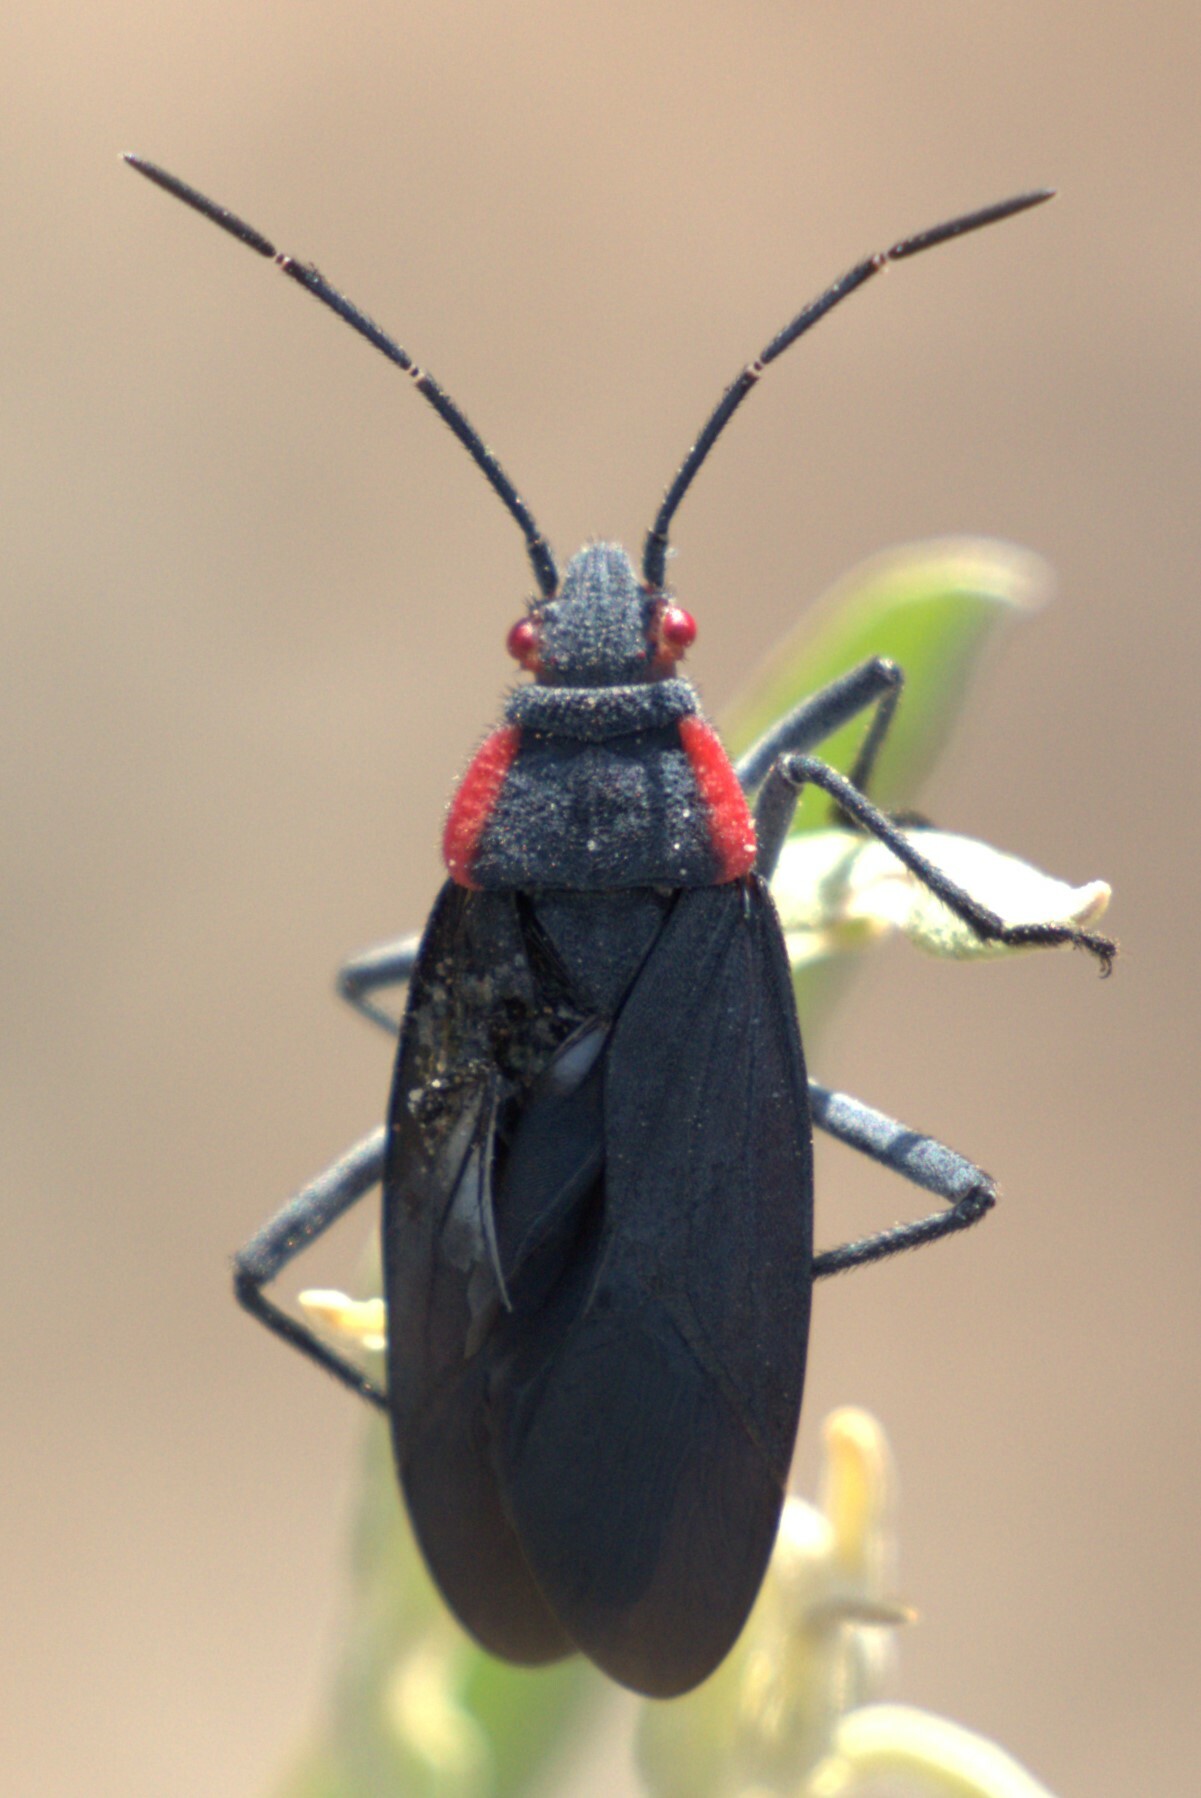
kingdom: Animalia
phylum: Arthropoda
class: Insecta
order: Hemiptera
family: Rhopalidae
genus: Jadera
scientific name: Jadera haematoloma
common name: Red-shouldered bug
